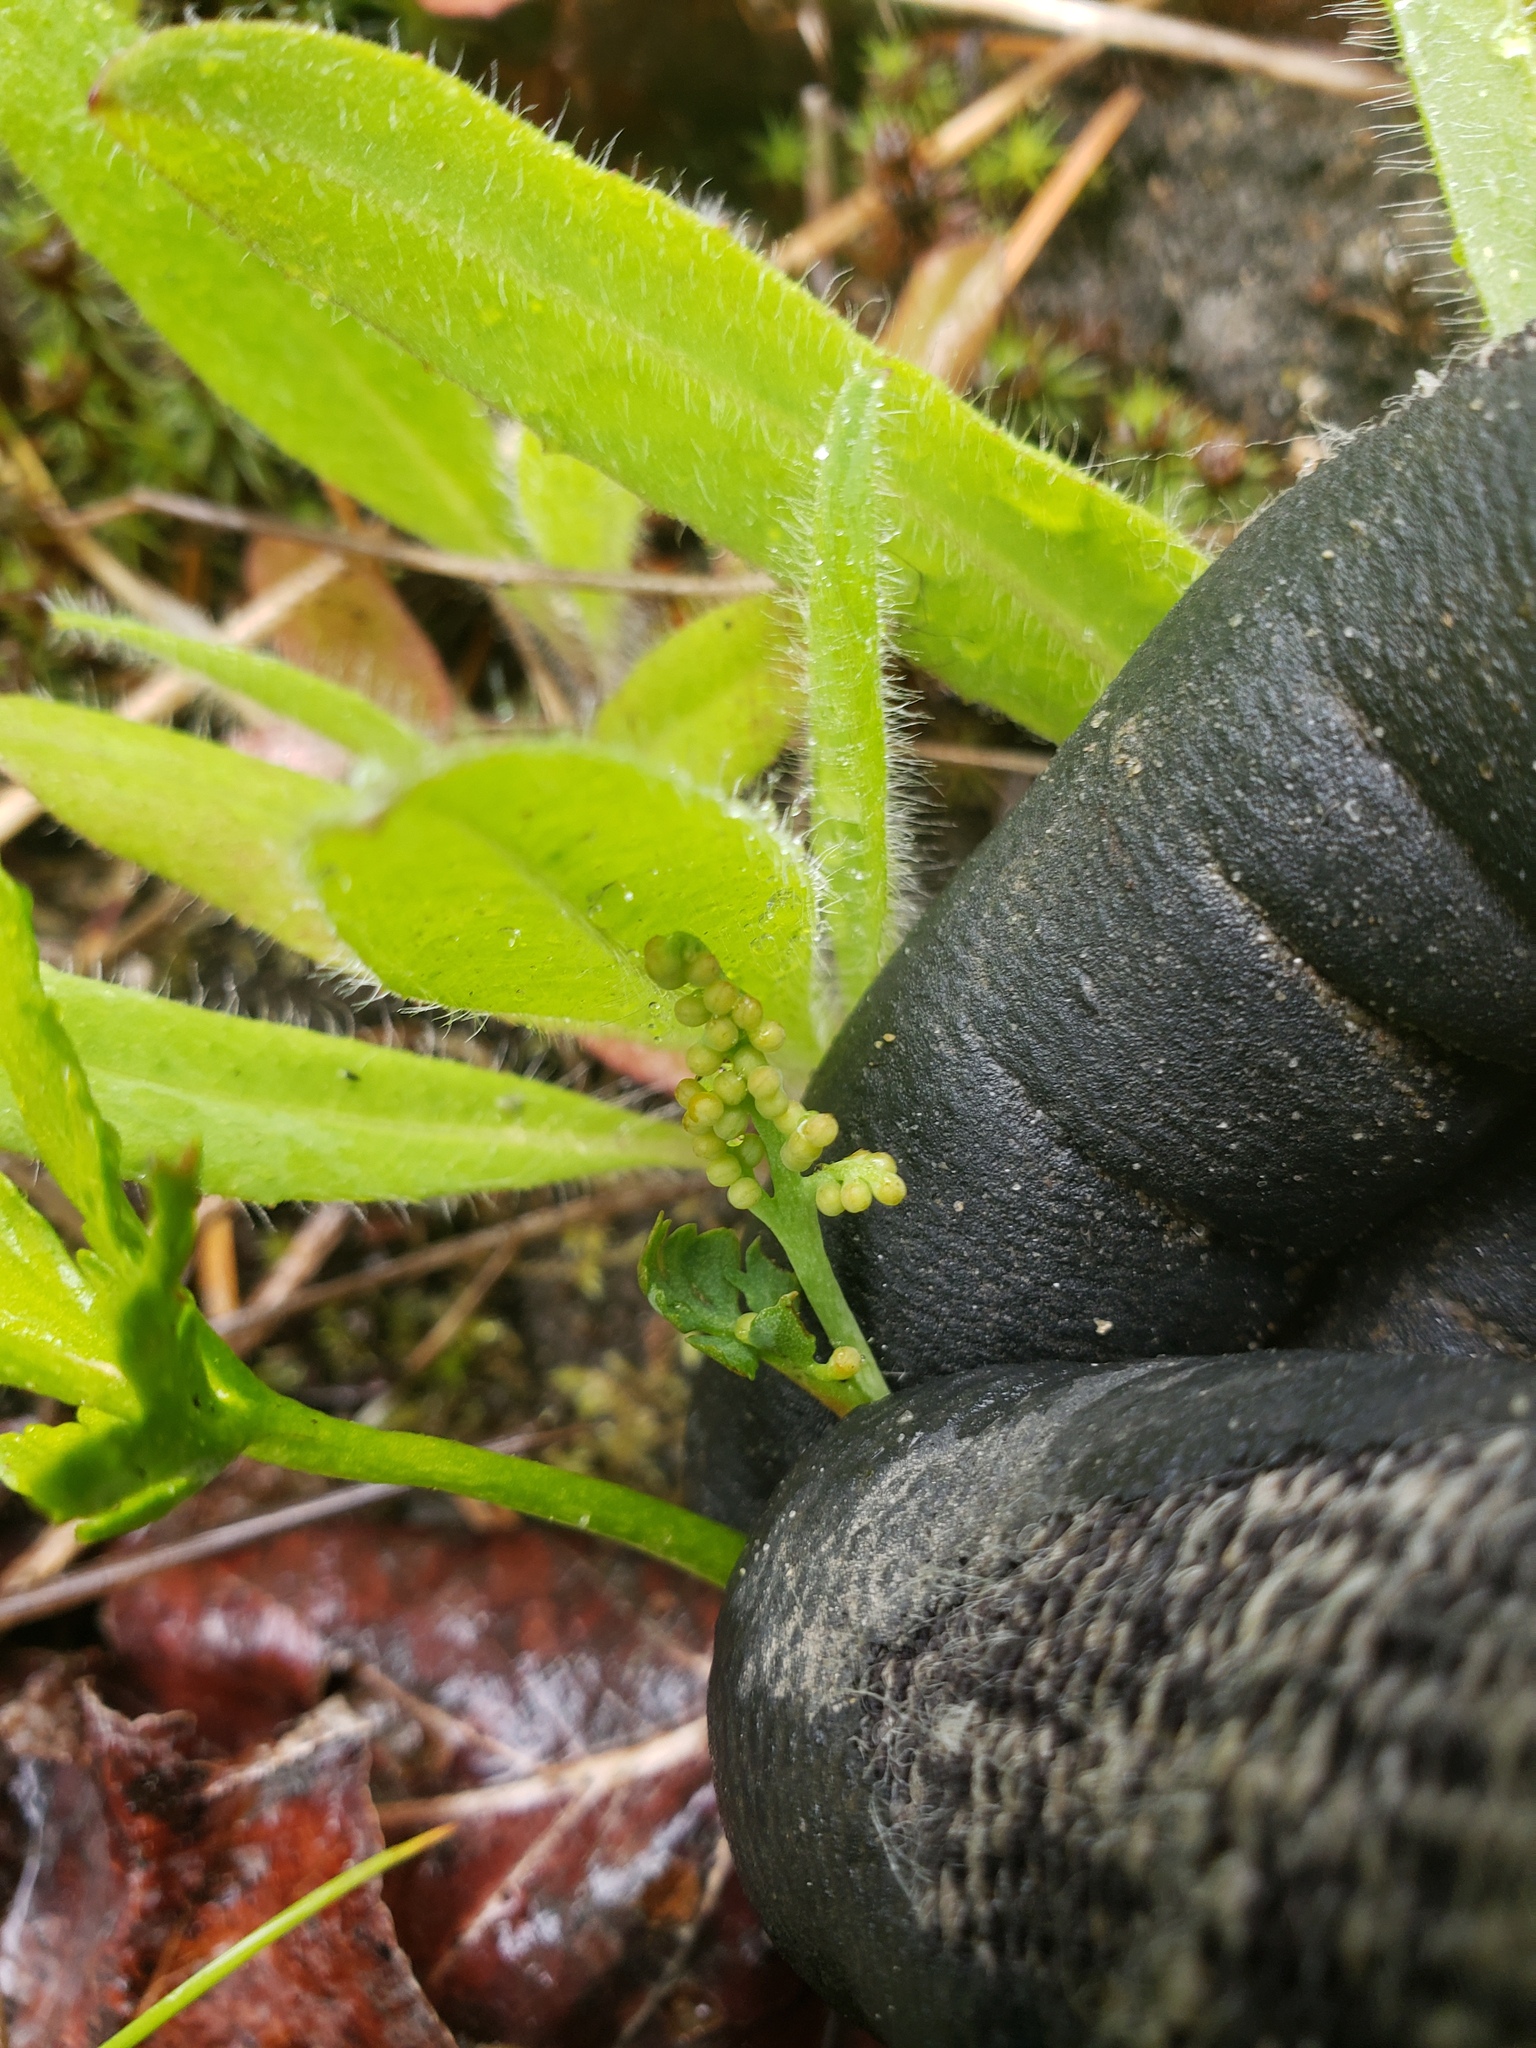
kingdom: Plantae
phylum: Tracheophyta
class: Polypodiopsida
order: Ophioglossales
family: Ophioglossaceae
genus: Botrychium
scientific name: Botrychium lanceolatum
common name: Lance-leaved moonwort
